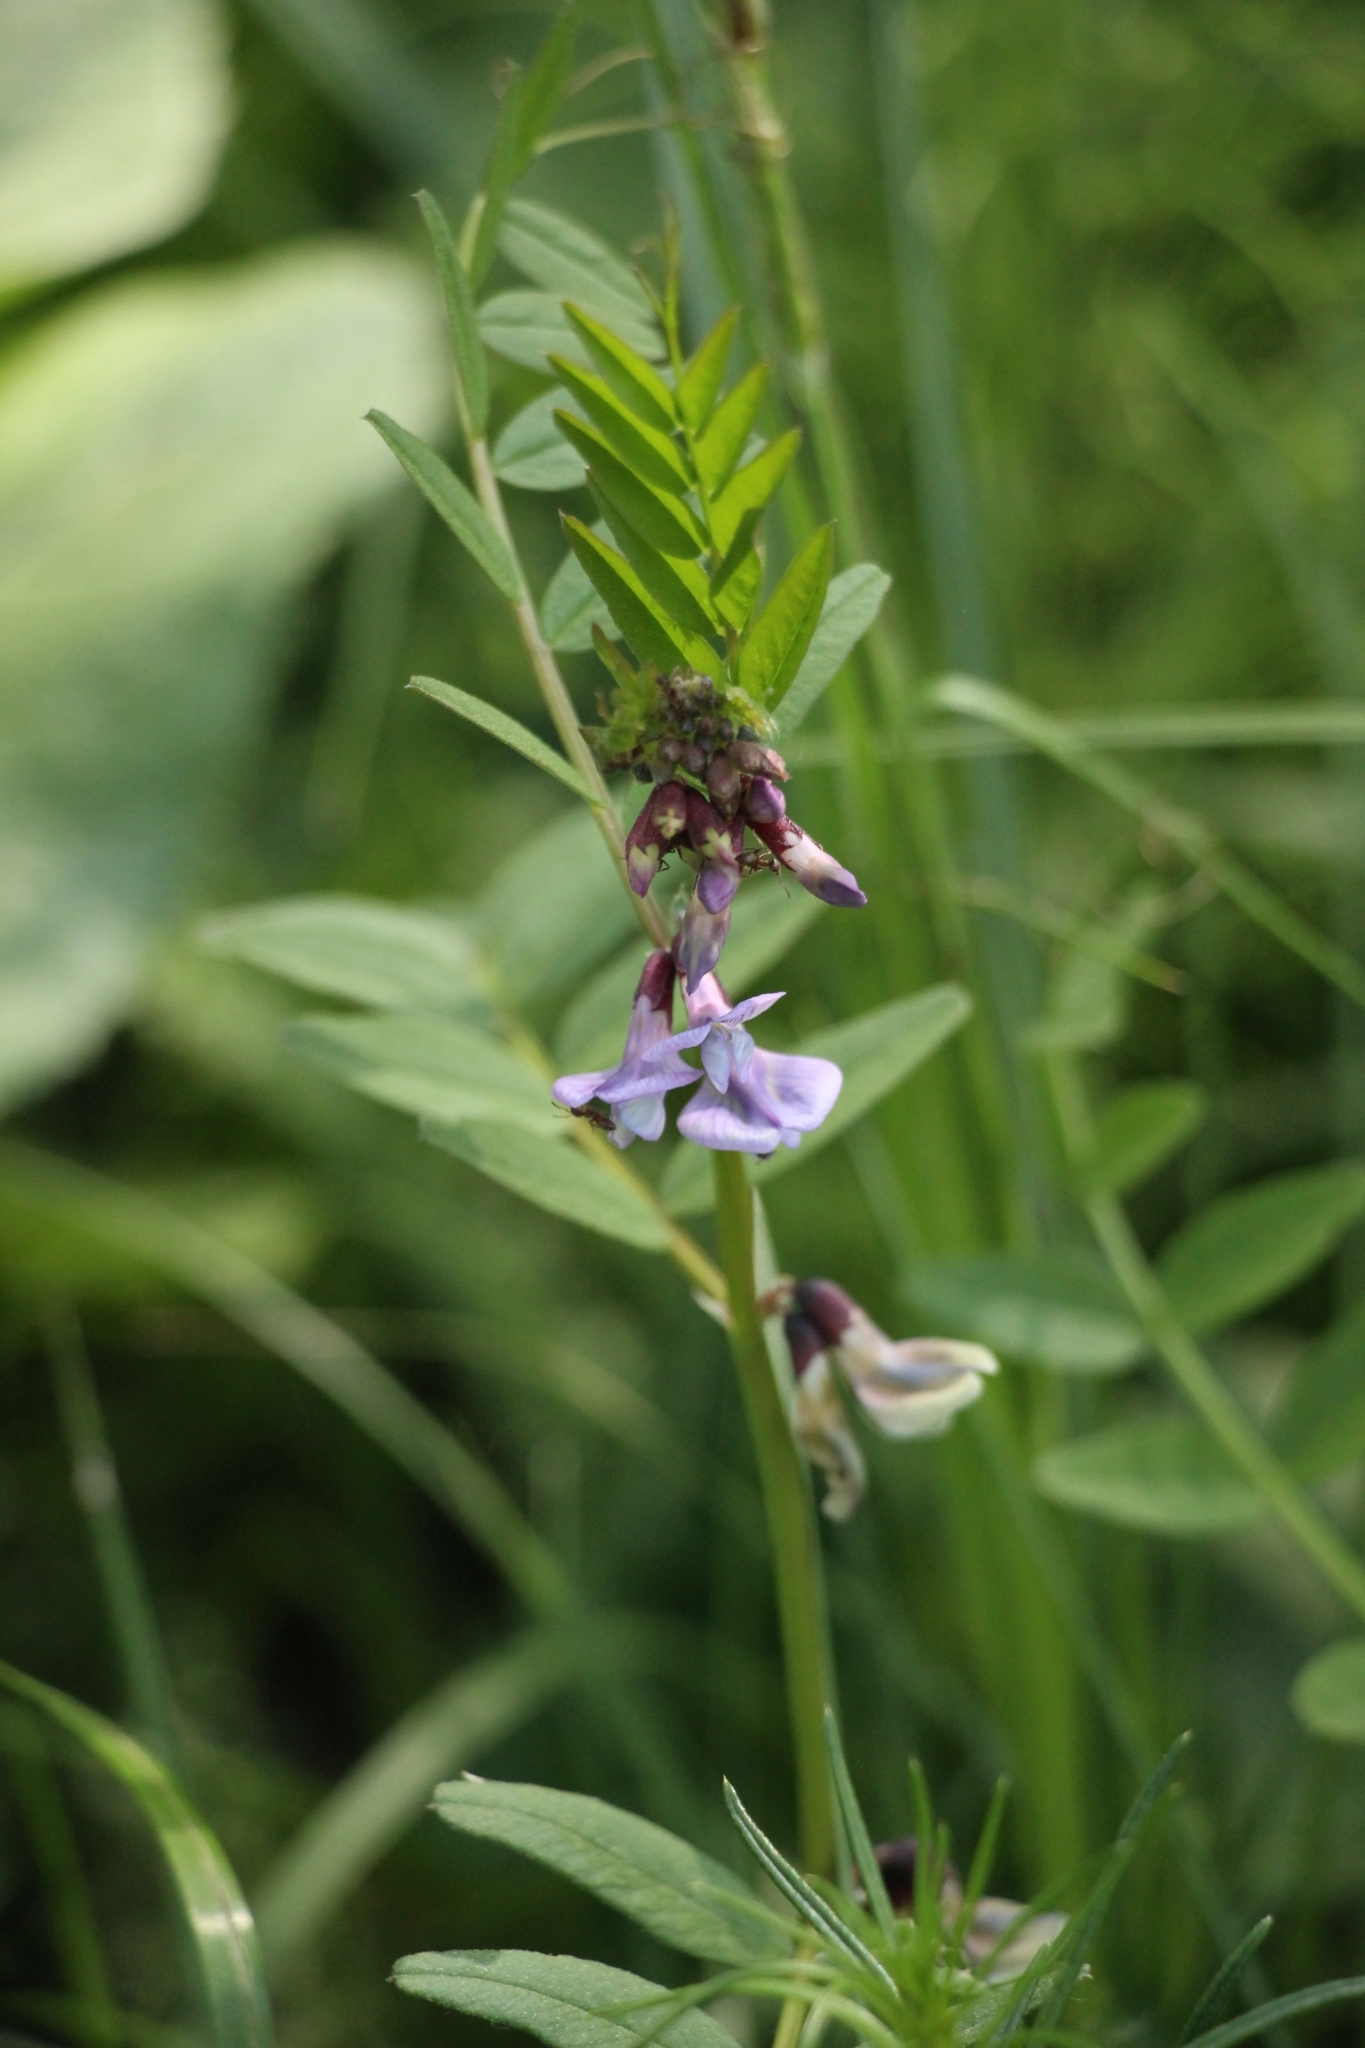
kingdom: Plantae
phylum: Tracheophyta
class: Magnoliopsida
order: Fabales
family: Fabaceae
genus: Vicia
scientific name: Vicia sepium
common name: Bush vetch
